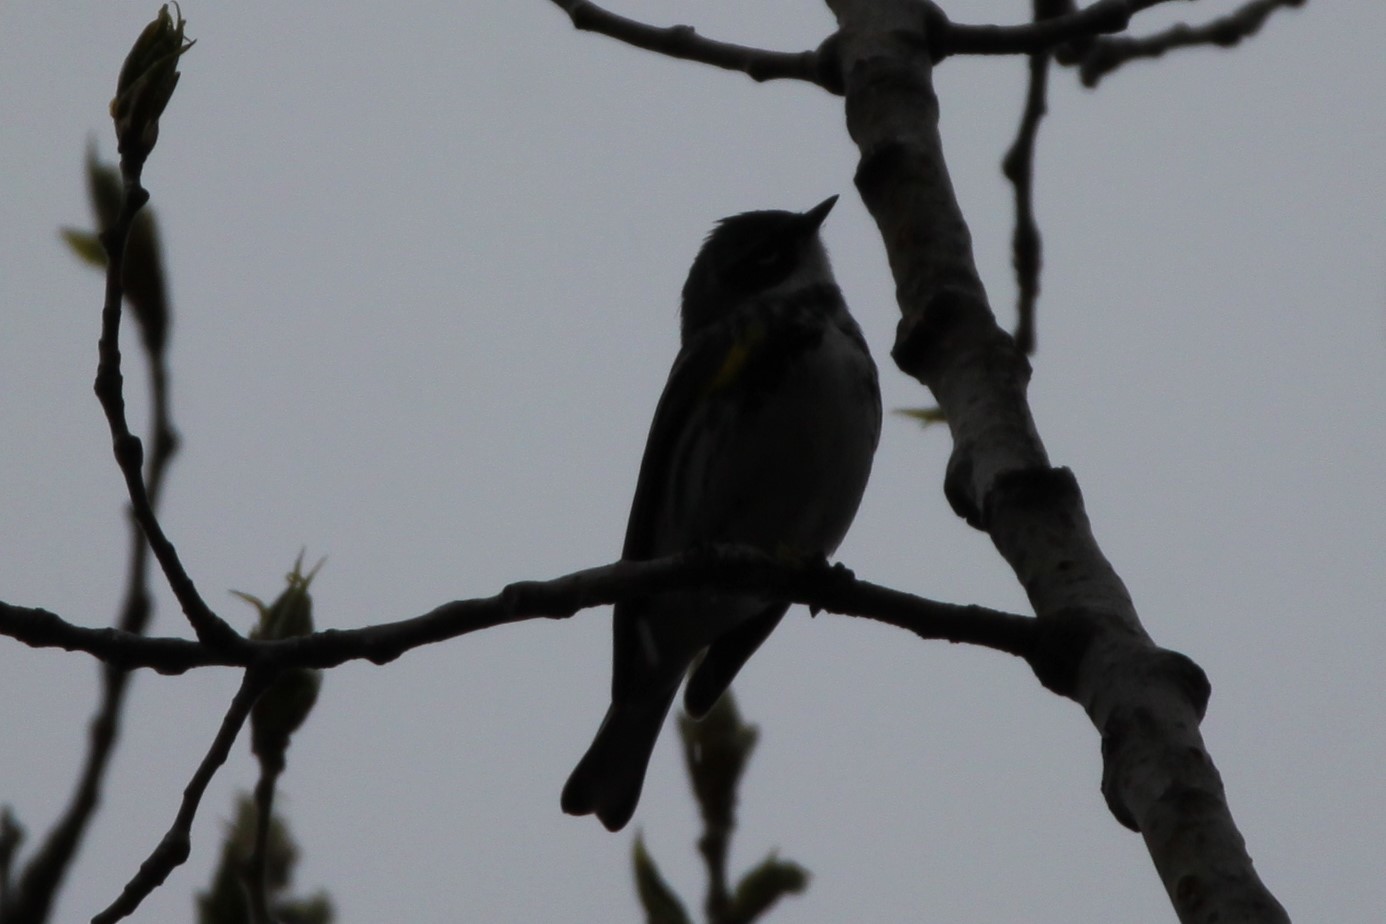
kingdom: Animalia
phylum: Chordata
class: Aves
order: Passeriformes
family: Parulidae
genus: Setophaga
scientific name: Setophaga coronata
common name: Myrtle warbler
